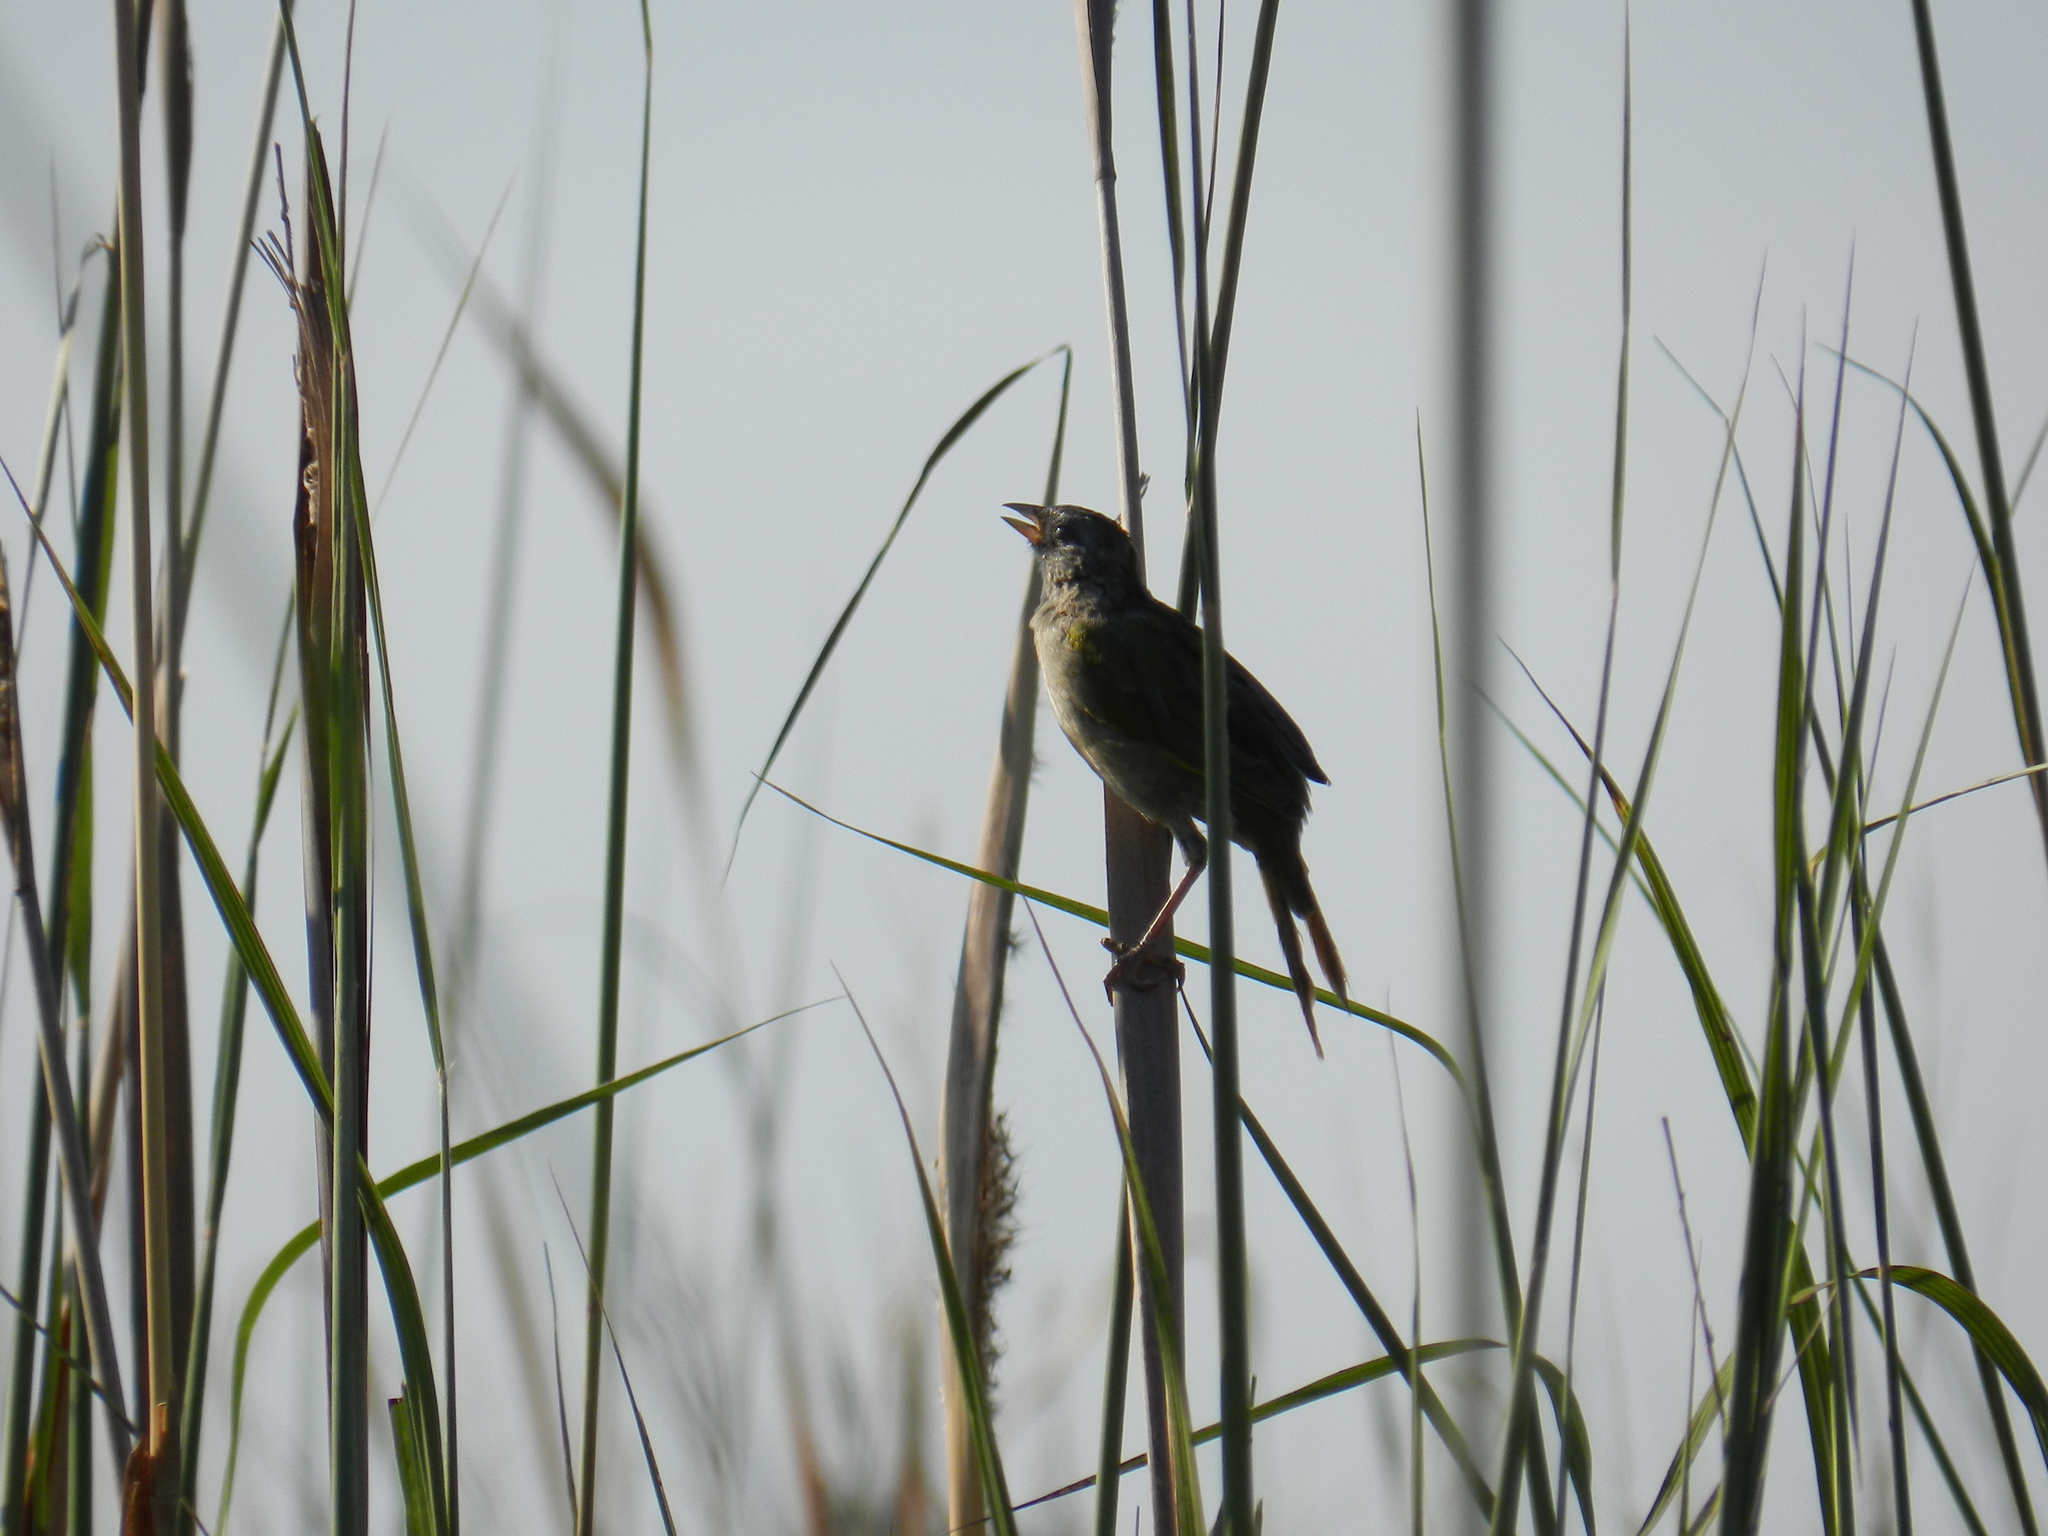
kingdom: Animalia
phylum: Chordata
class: Aves
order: Passeriformes
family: Thraupidae
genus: Embernagra
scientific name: Embernagra platensis
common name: Pampa finch
